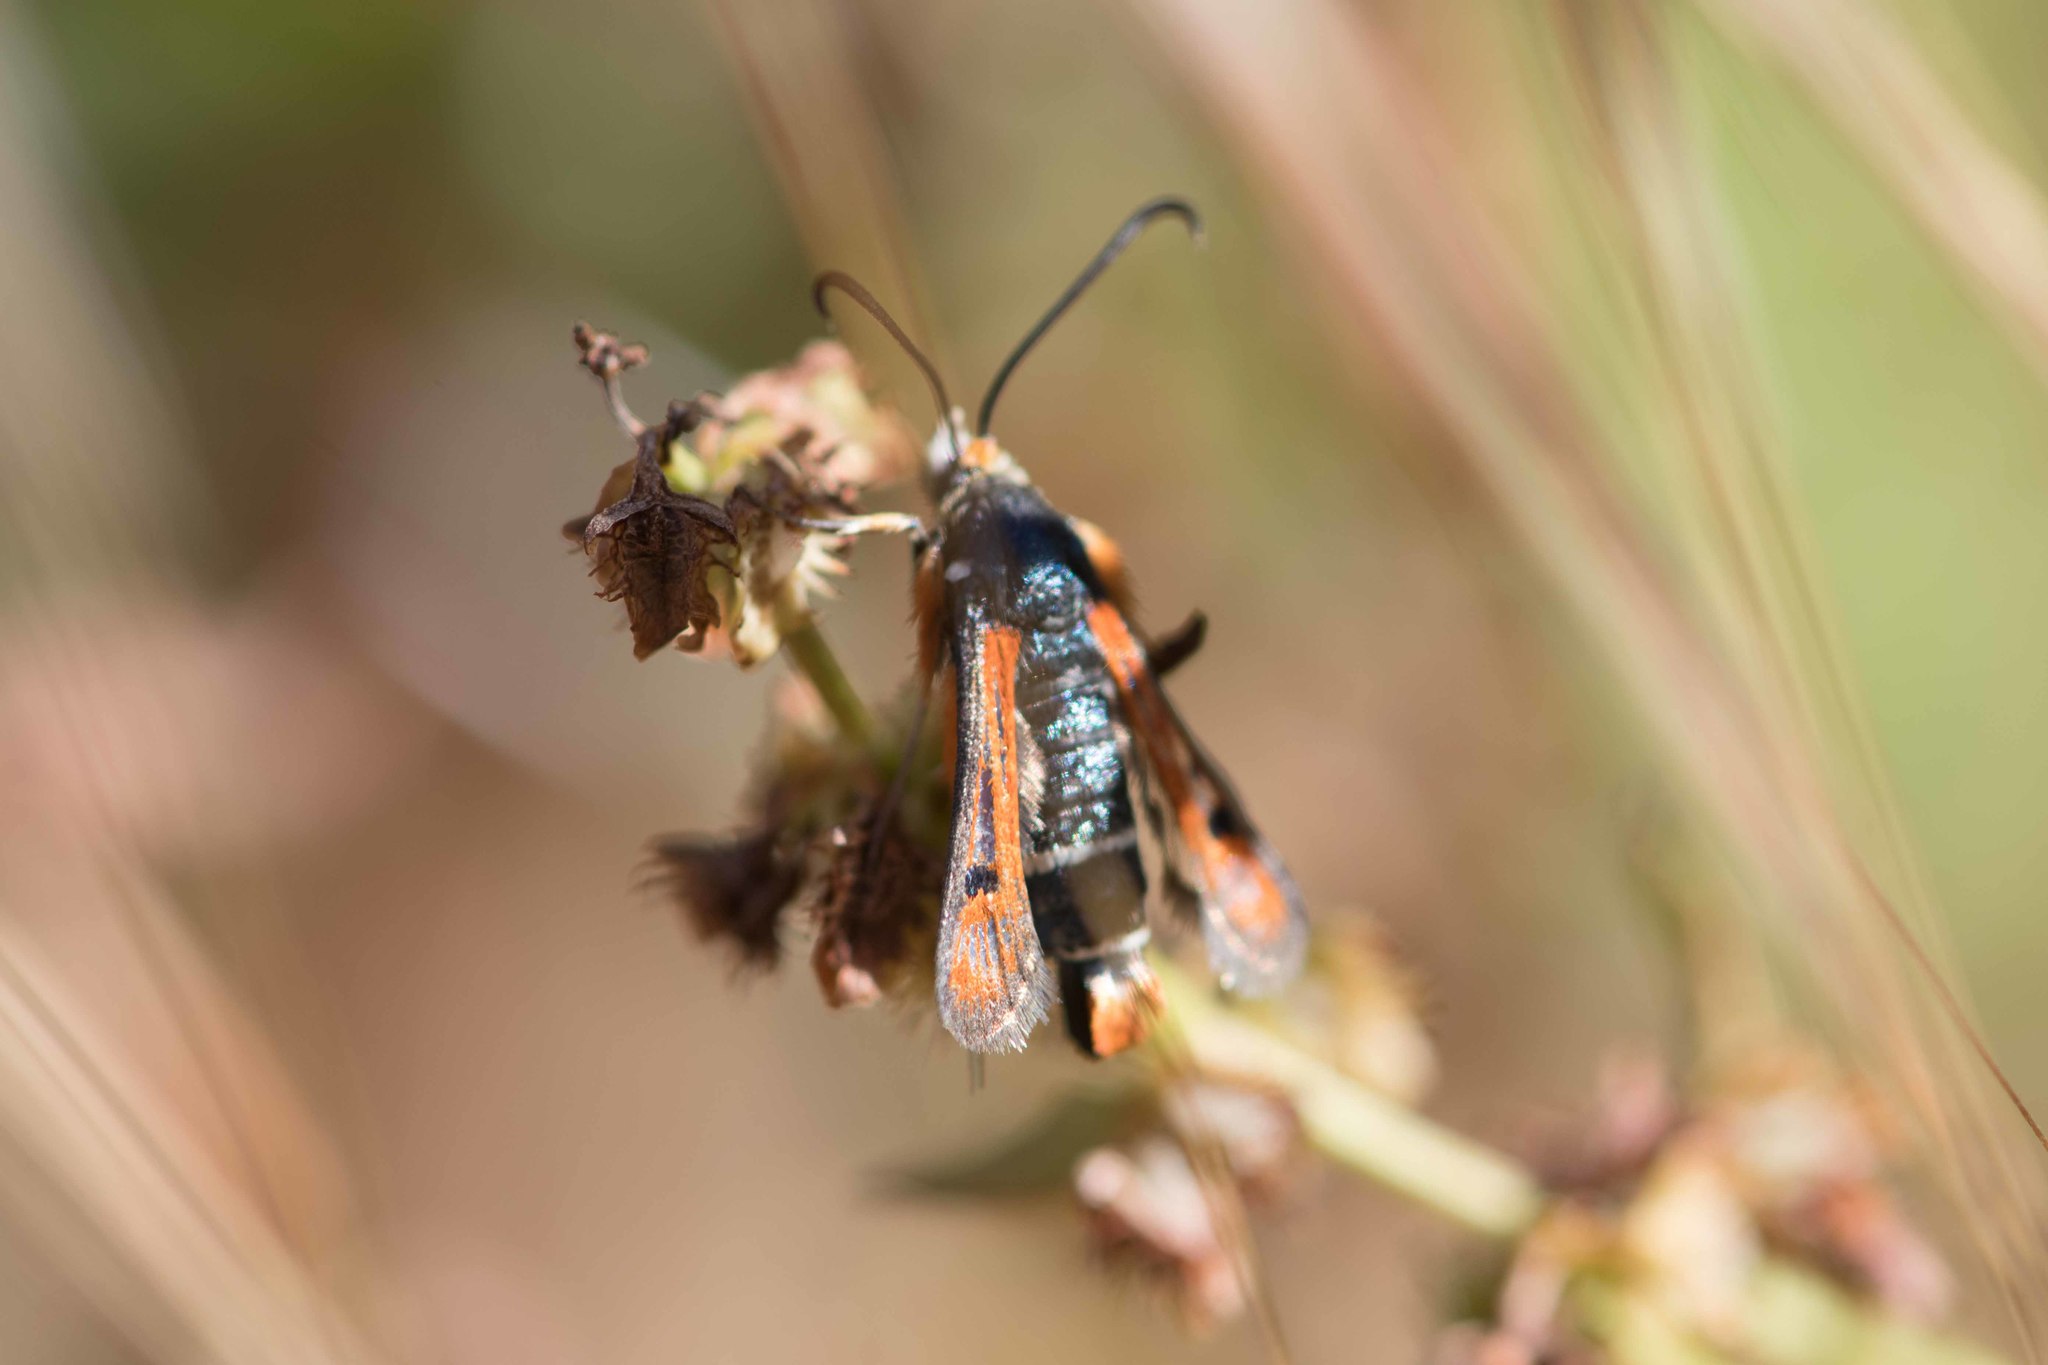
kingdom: Animalia
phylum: Arthropoda
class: Insecta
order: Lepidoptera
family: Sesiidae
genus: Pyropteron
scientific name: Pyropteron chrysidiforme
